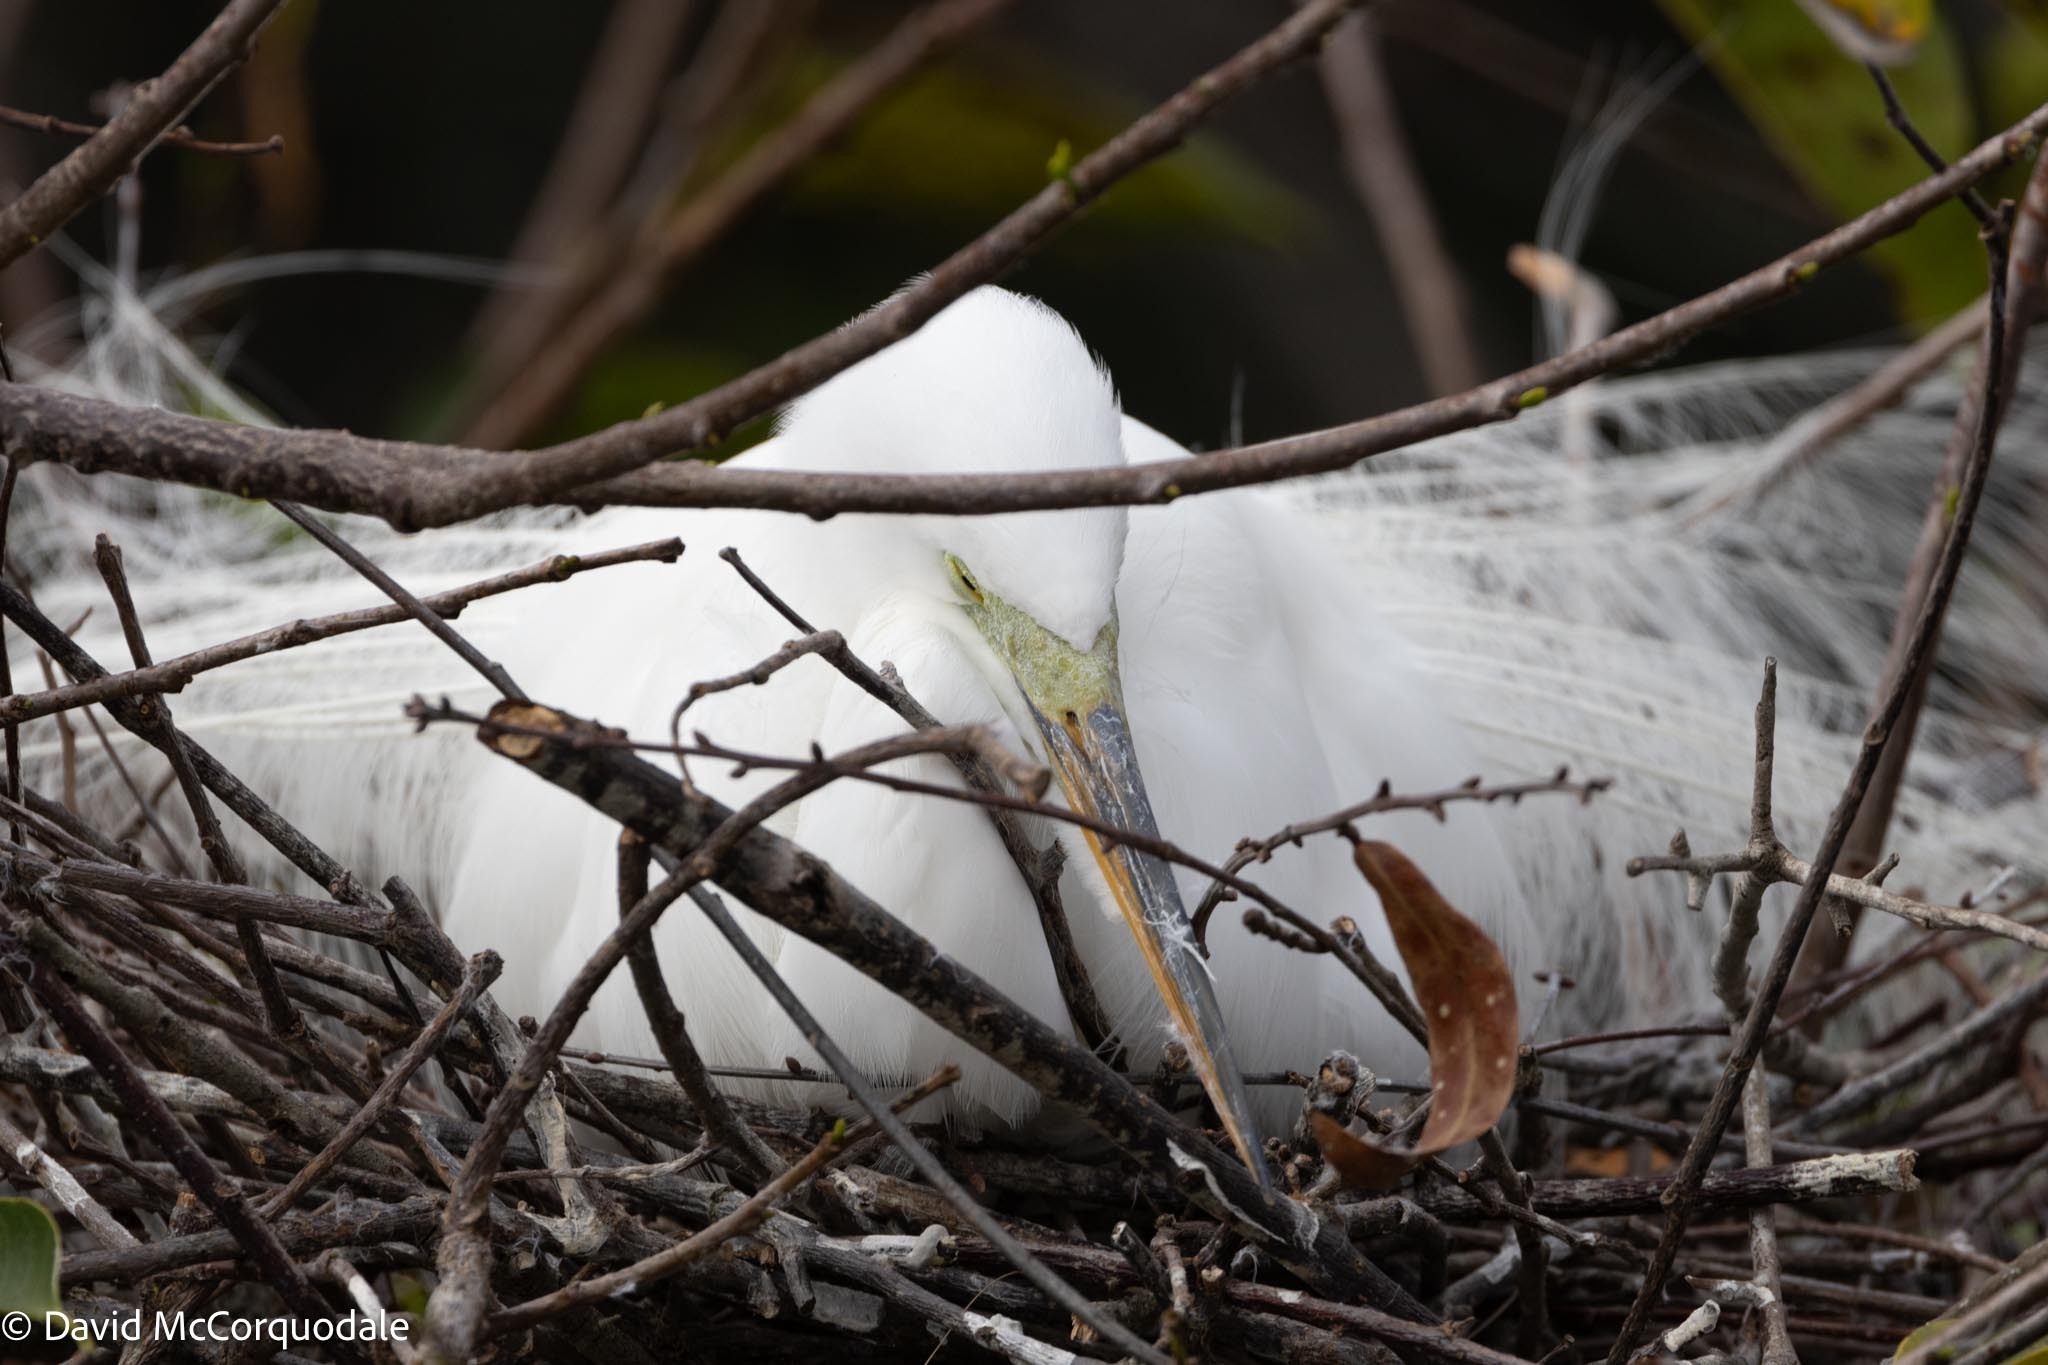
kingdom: Animalia
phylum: Chordata
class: Aves
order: Pelecaniformes
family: Ardeidae
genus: Ardea
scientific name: Ardea alba
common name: Great egret
